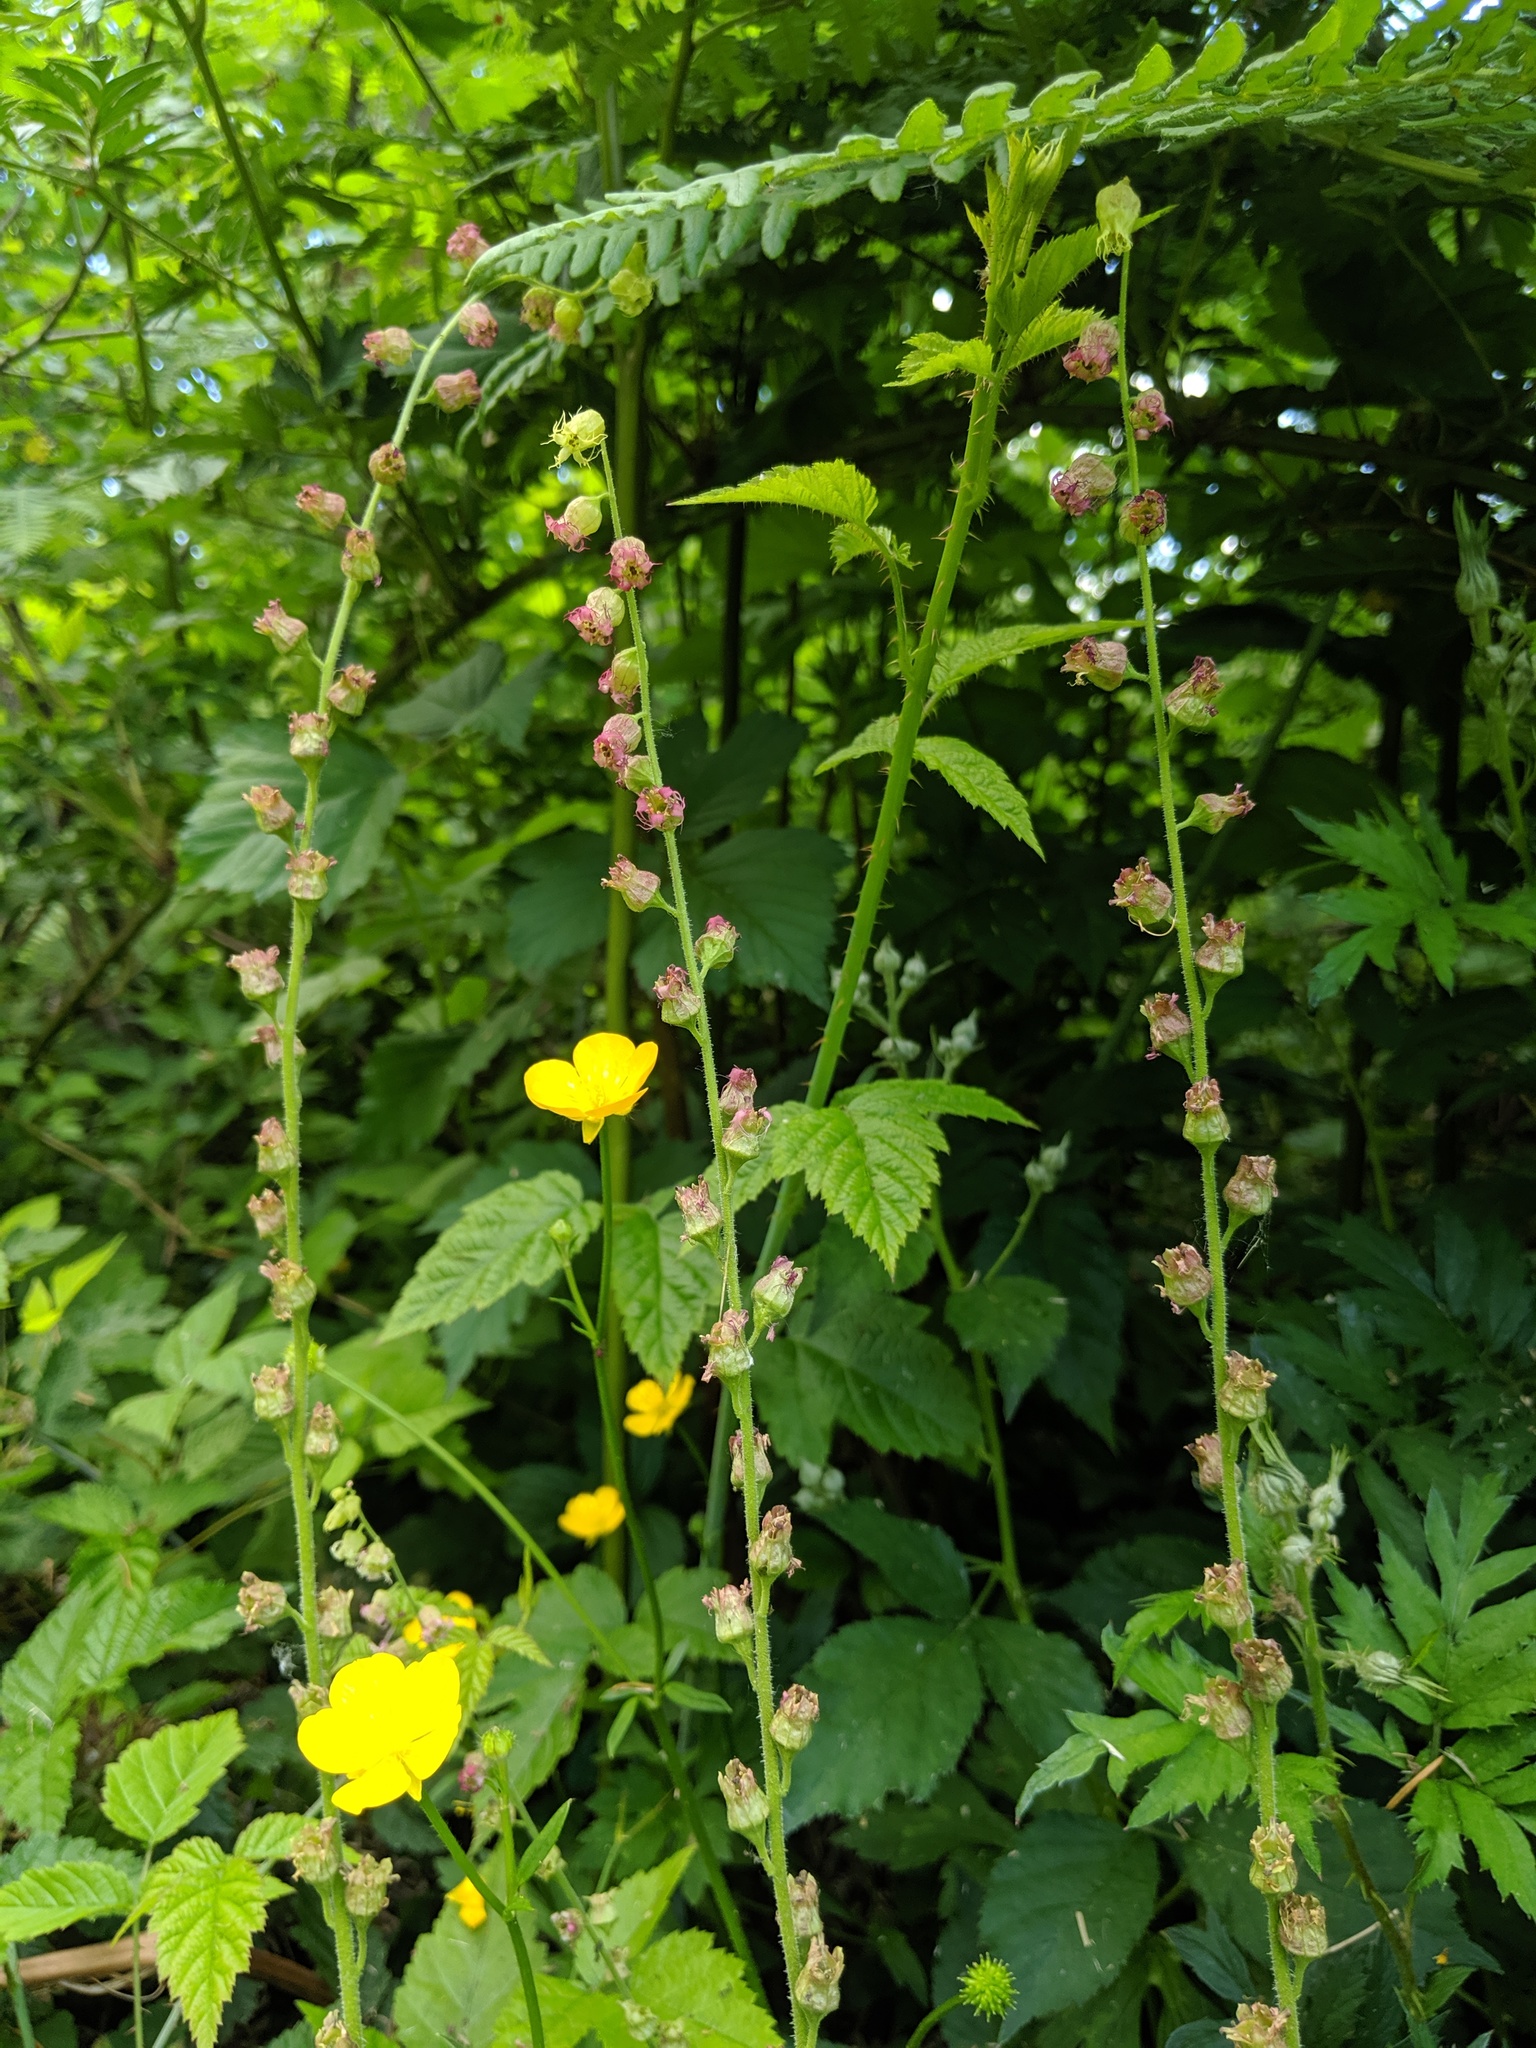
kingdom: Plantae
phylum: Tracheophyta
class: Magnoliopsida
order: Saxifragales
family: Saxifragaceae
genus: Tellima
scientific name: Tellima grandiflora
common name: Fringecups
